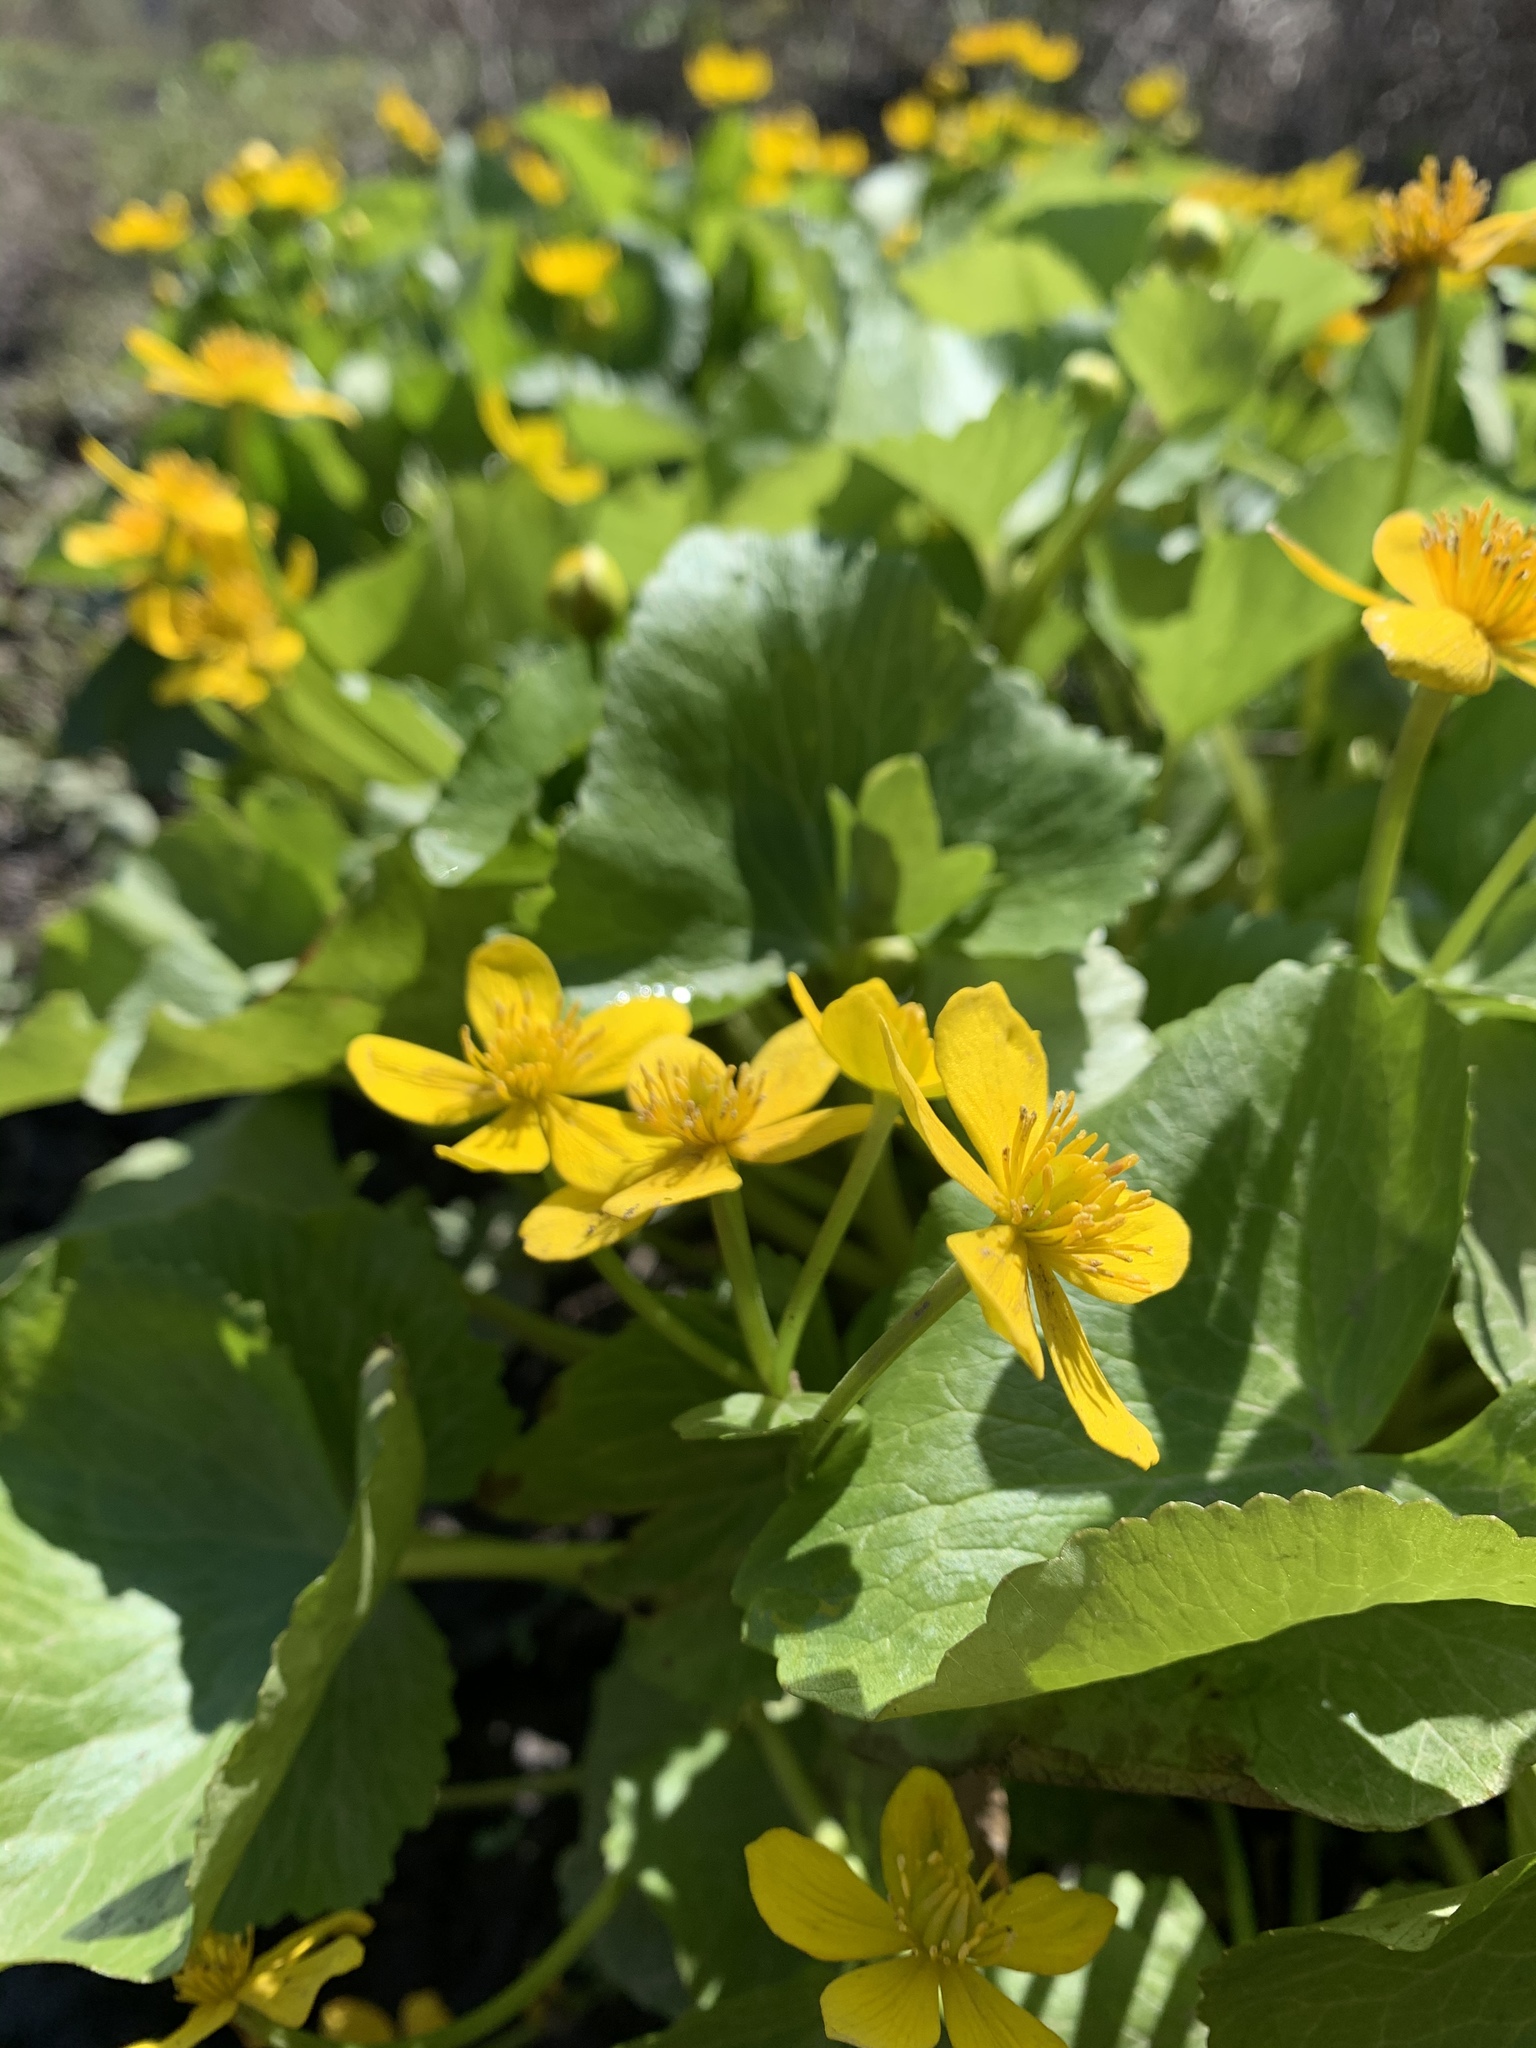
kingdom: Plantae
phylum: Tracheophyta
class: Magnoliopsida
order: Ranunculales
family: Ranunculaceae
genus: Caltha
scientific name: Caltha palustris
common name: Marsh marigold
